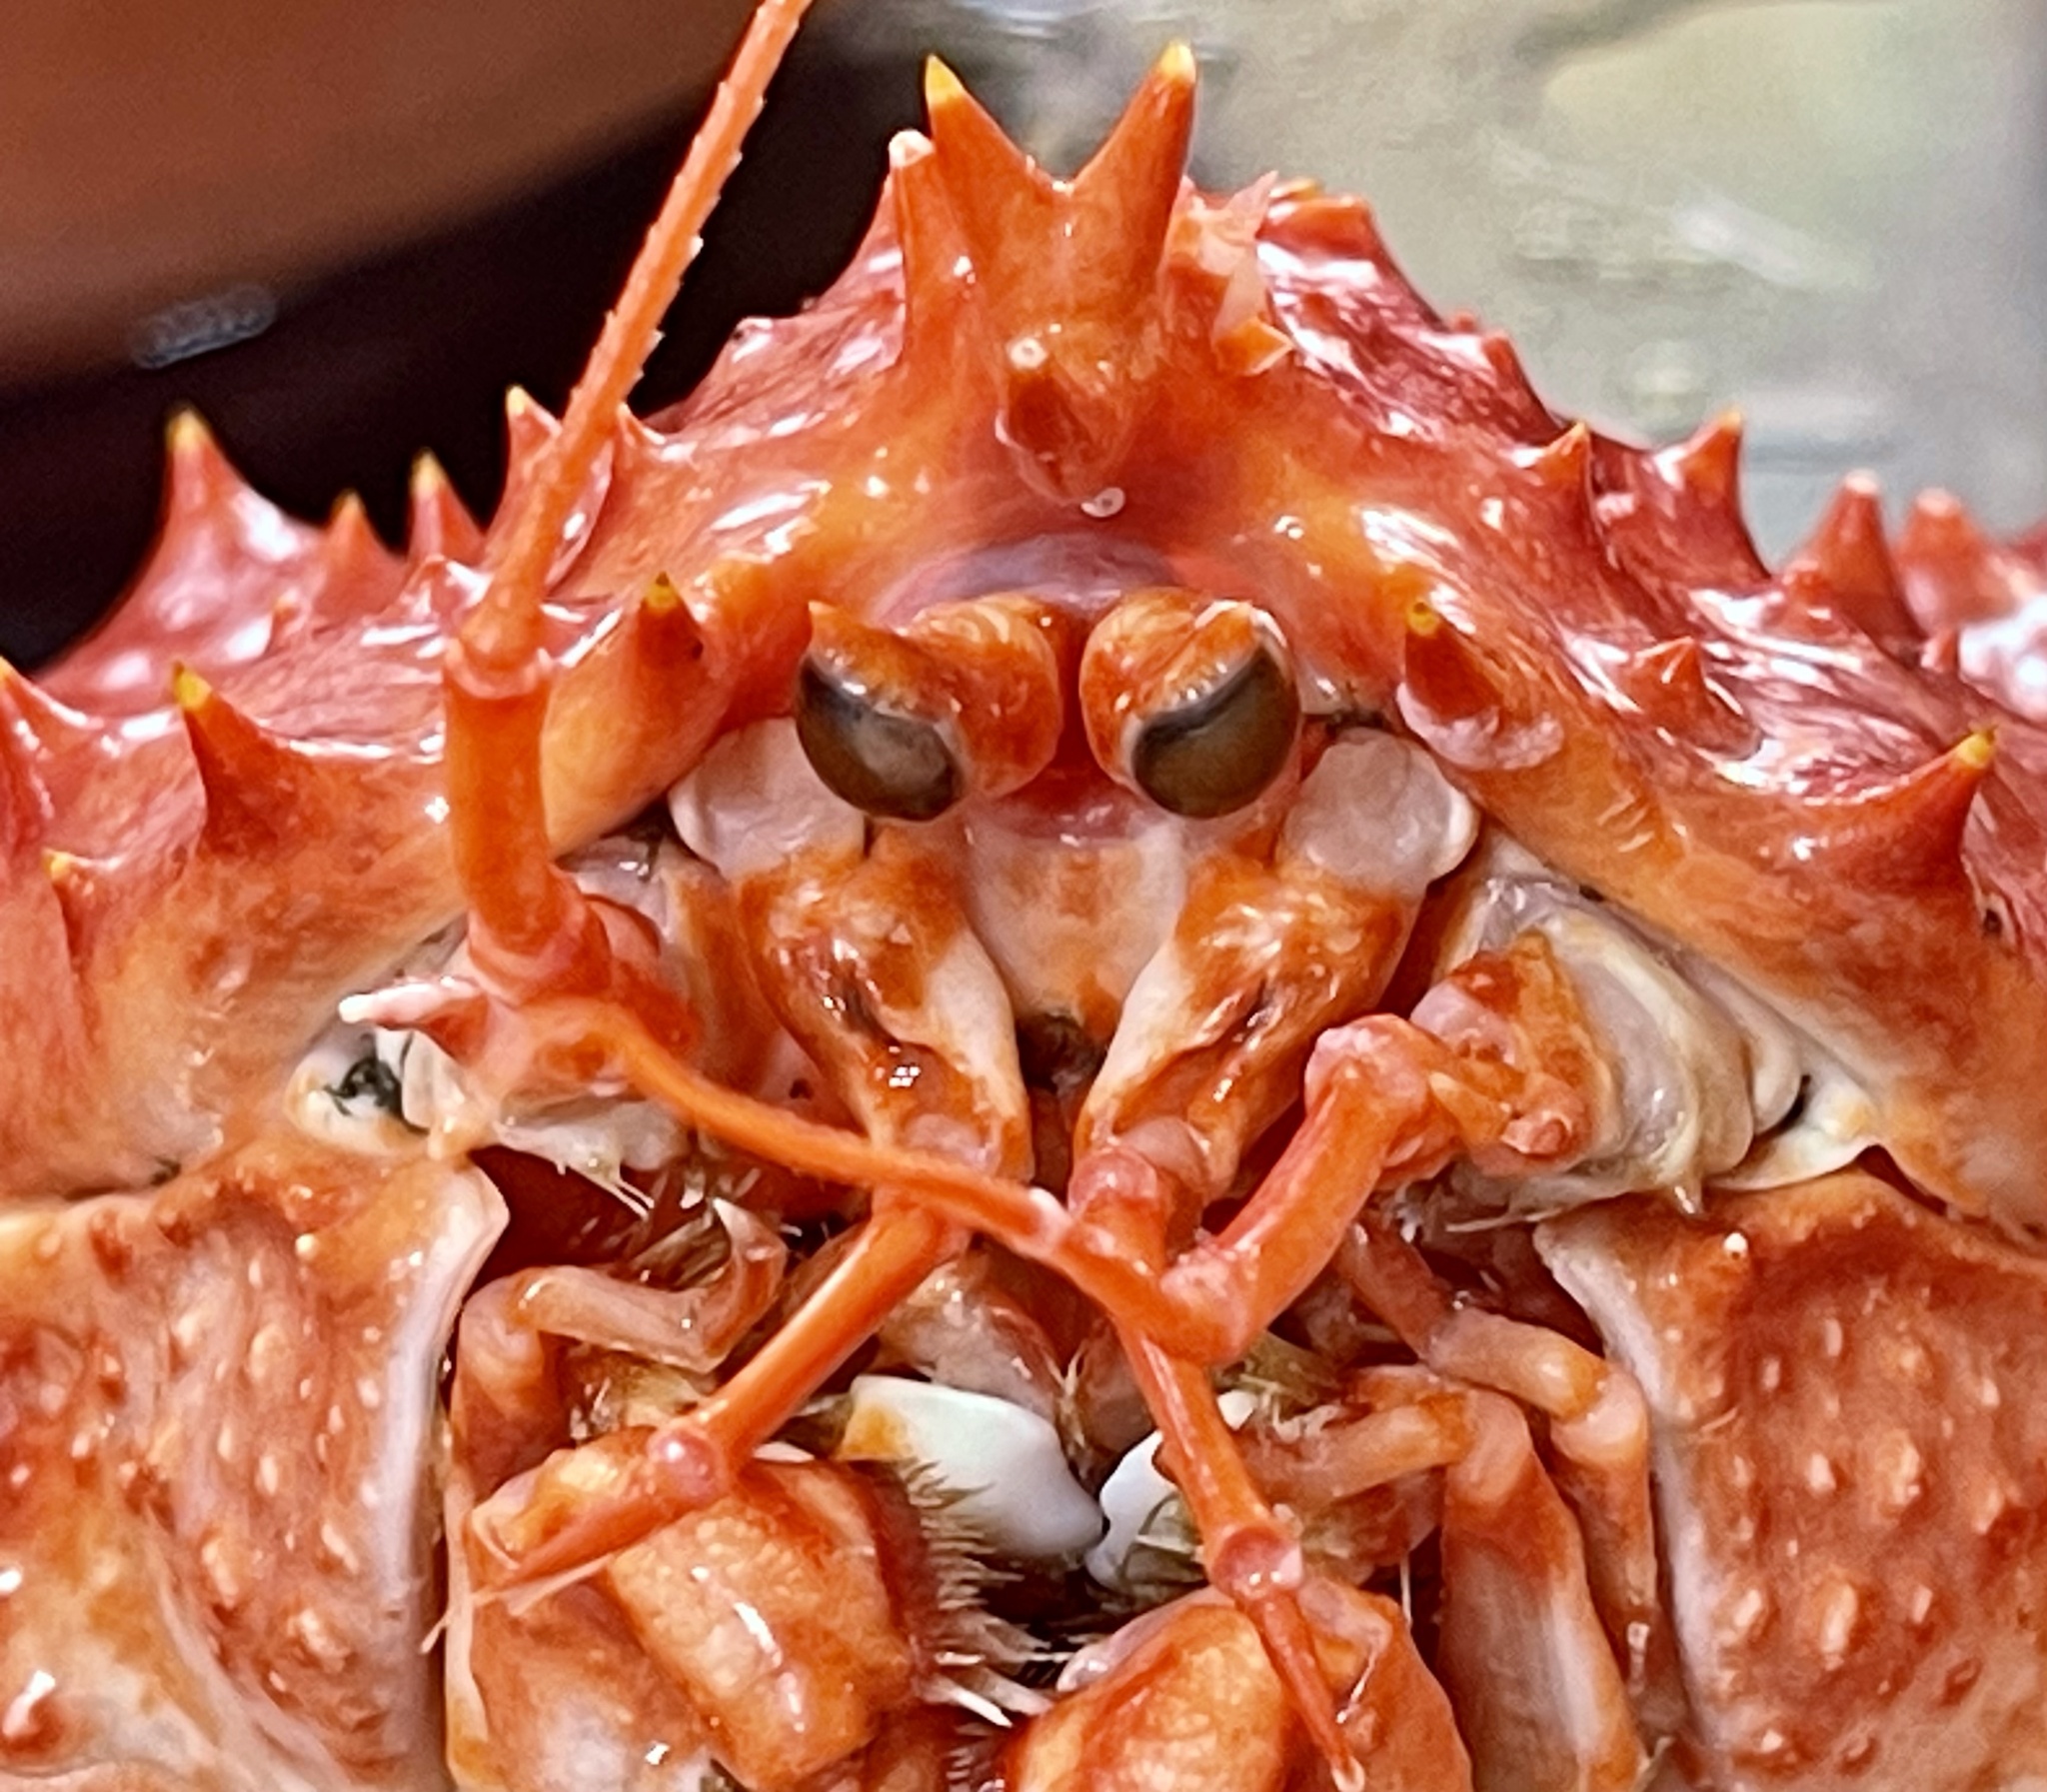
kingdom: Animalia
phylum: Arthropoda
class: Malacostraca
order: Decapoda
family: Lithodidae
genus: Lithodes
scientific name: Lithodes santolla
